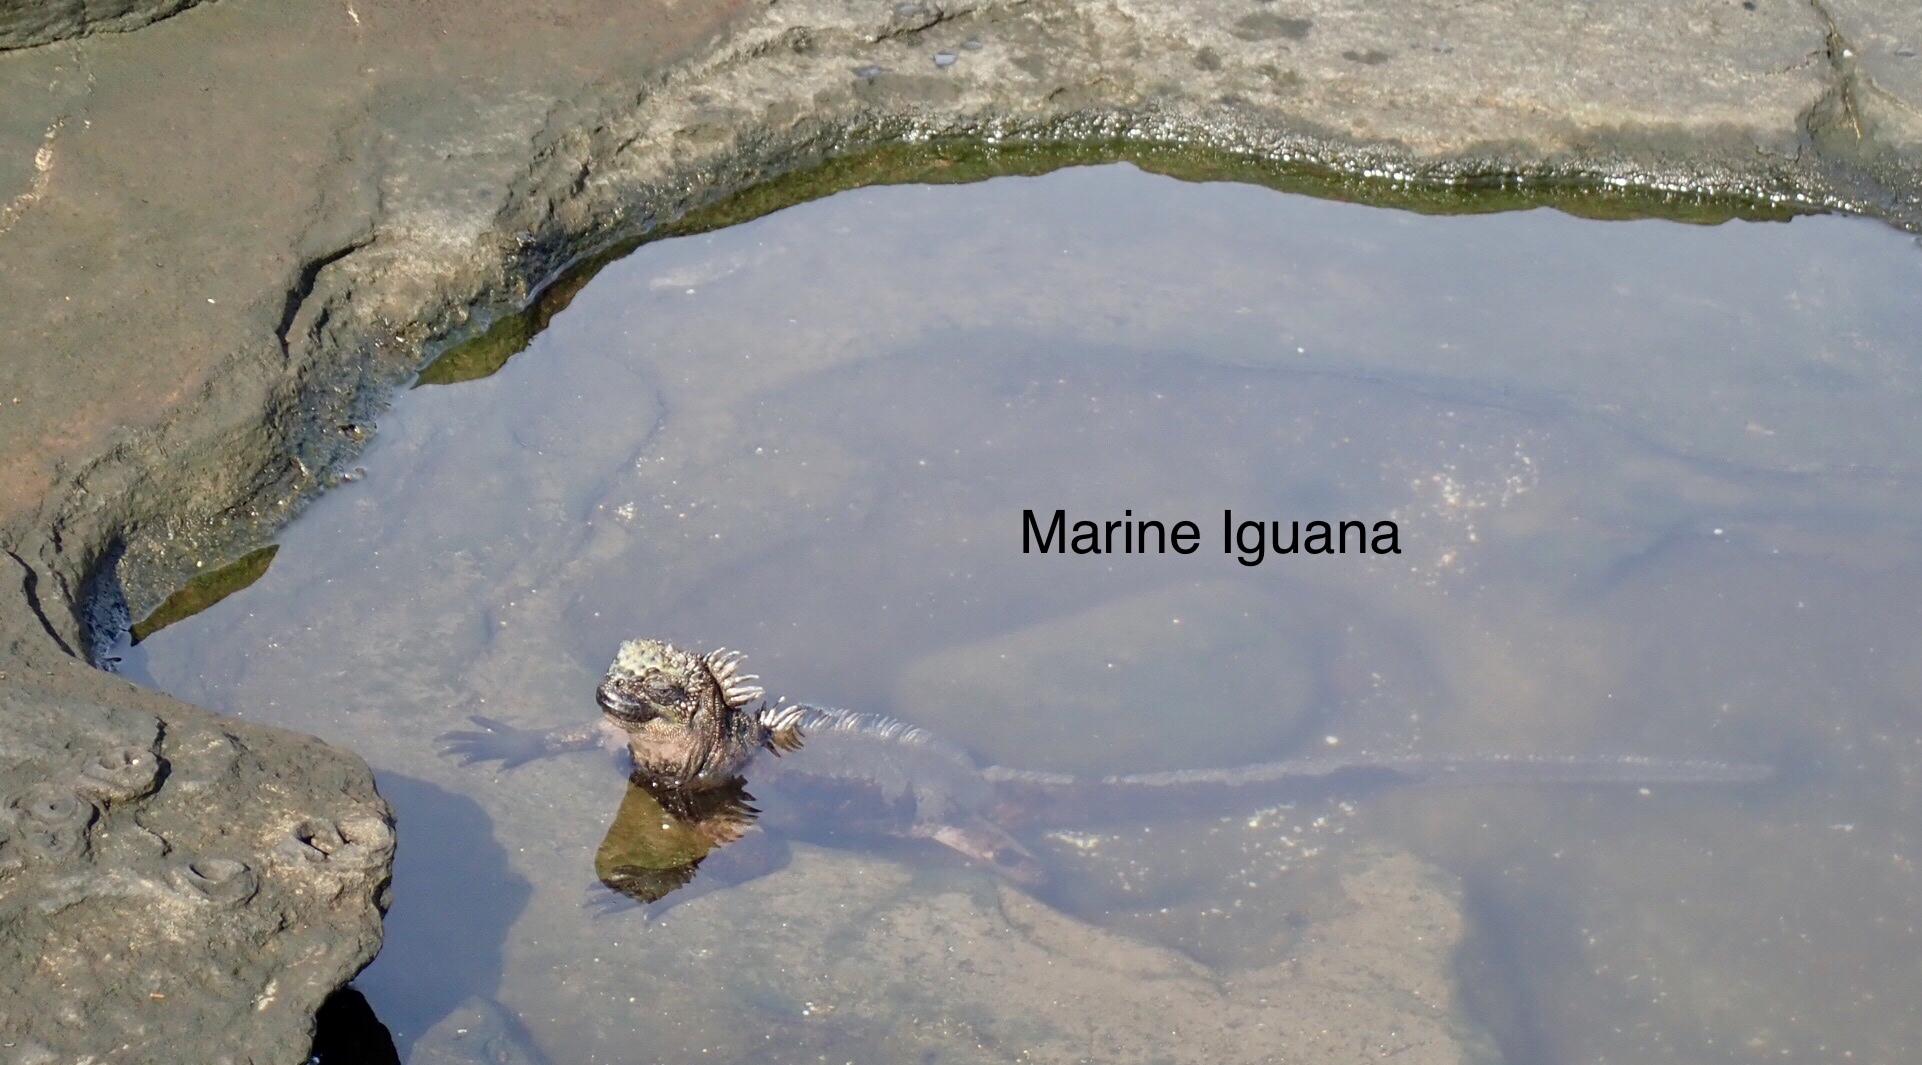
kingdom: Animalia
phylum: Chordata
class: Squamata
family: Iguanidae
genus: Amblyrhynchus
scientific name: Amblyrhynchus cristatus
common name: Marine iguana
